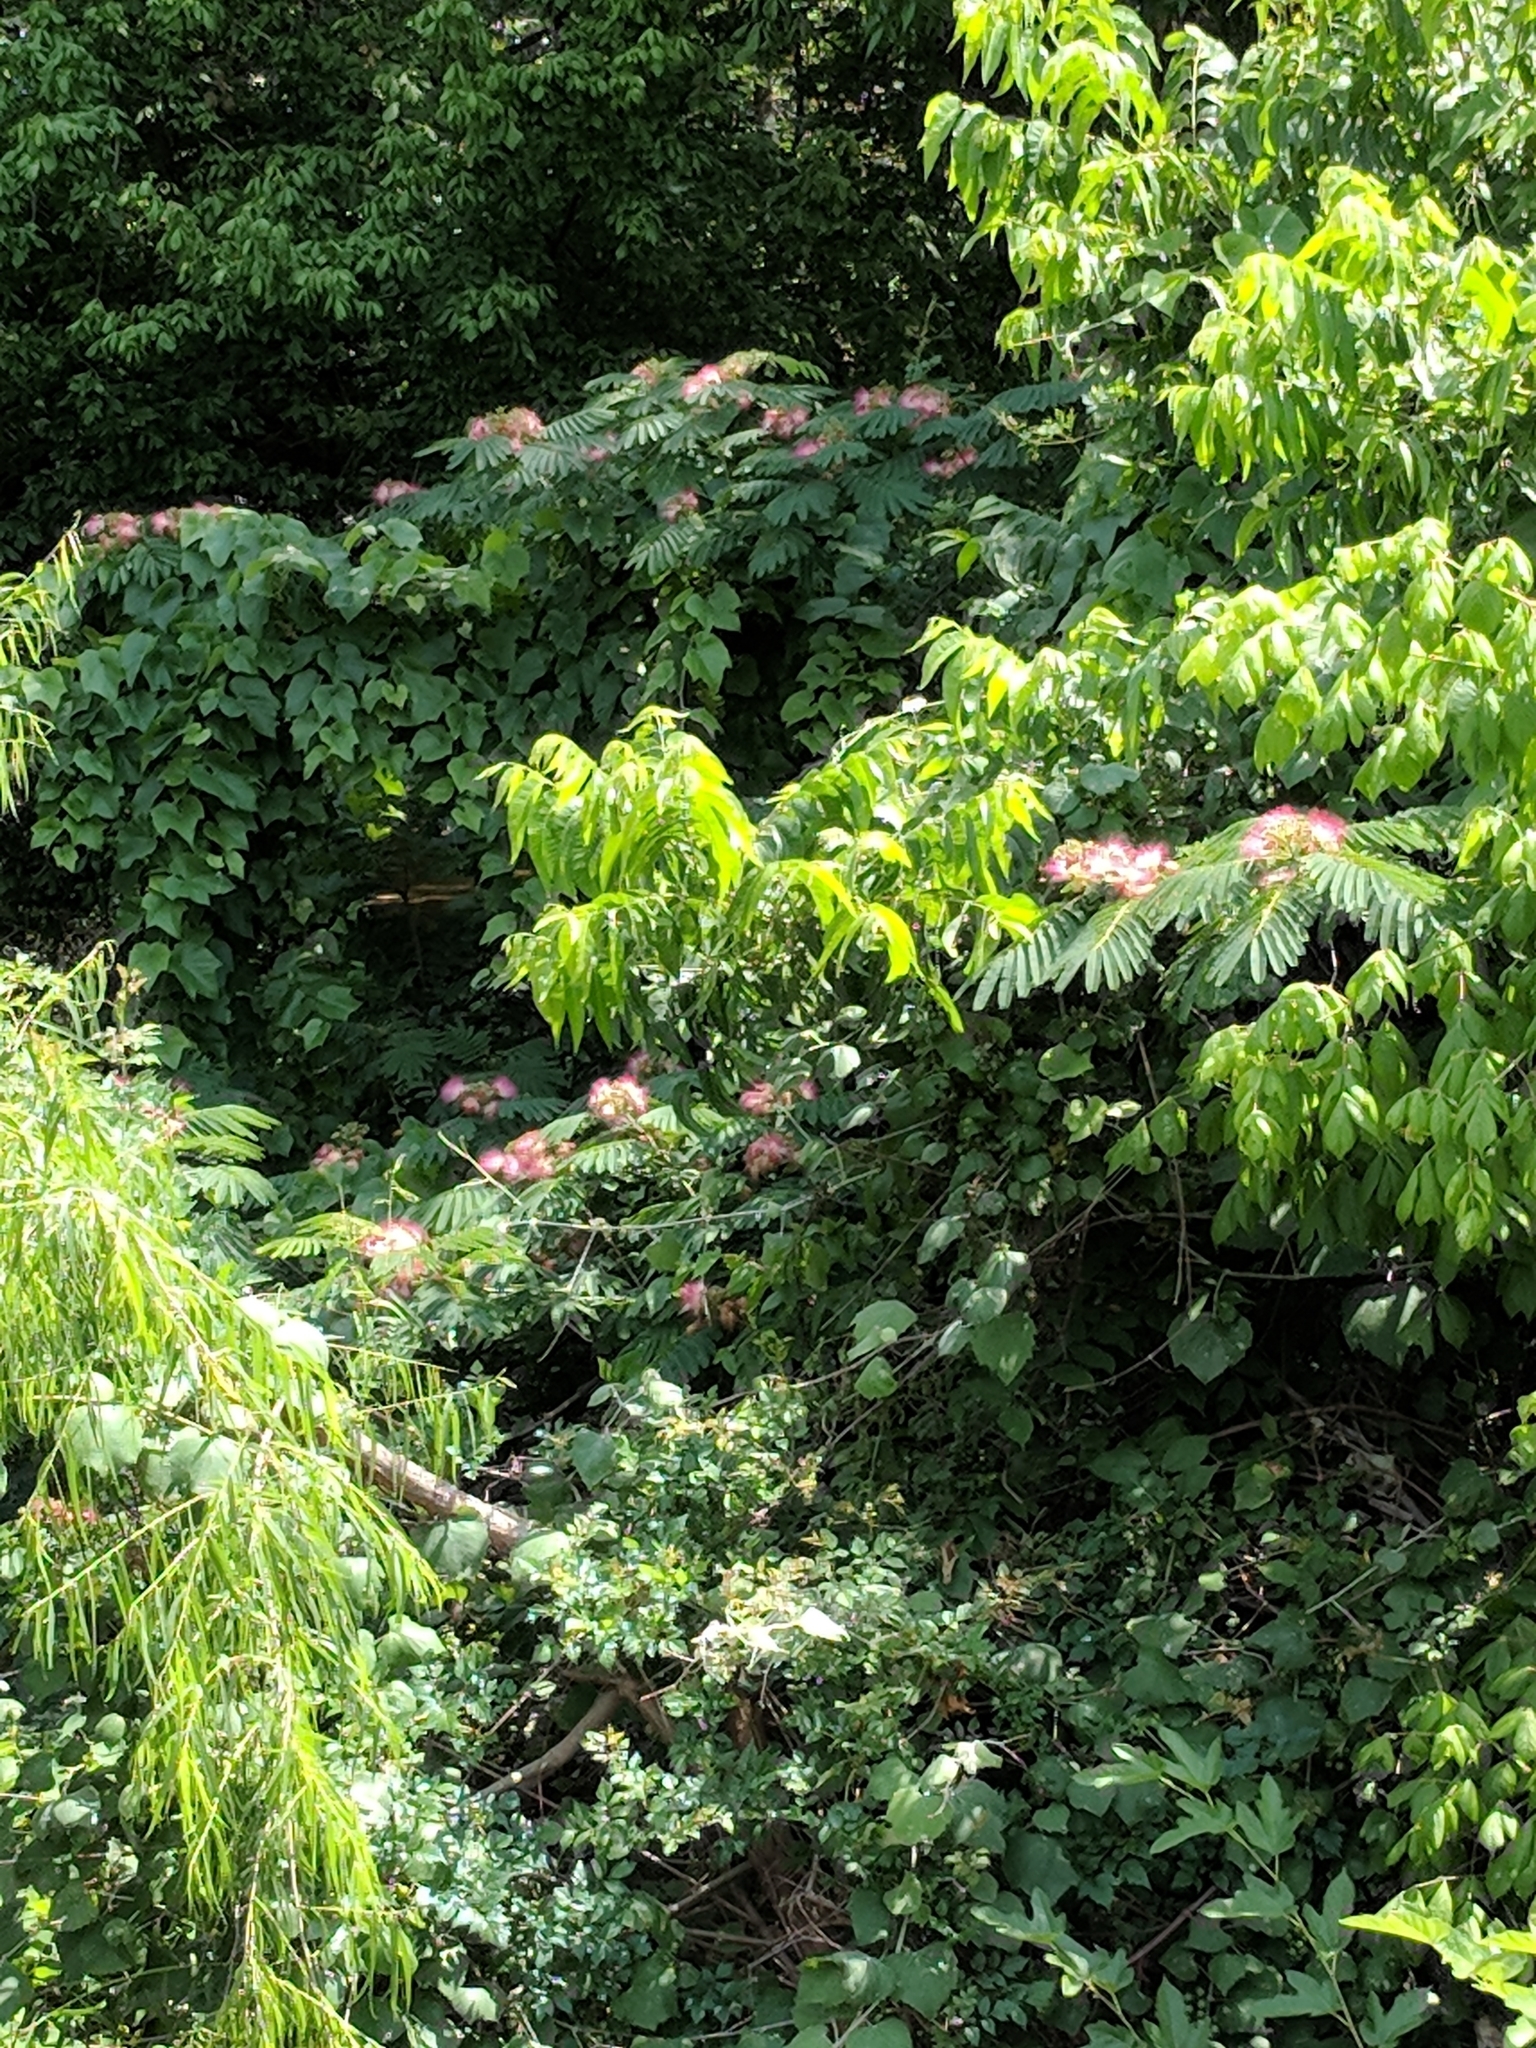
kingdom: Plantae
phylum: Tracheophyta
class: Magnoliopsida
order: Fabales
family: Fabaceae
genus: Albizia
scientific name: Albizia julibrissin
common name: Silktree
